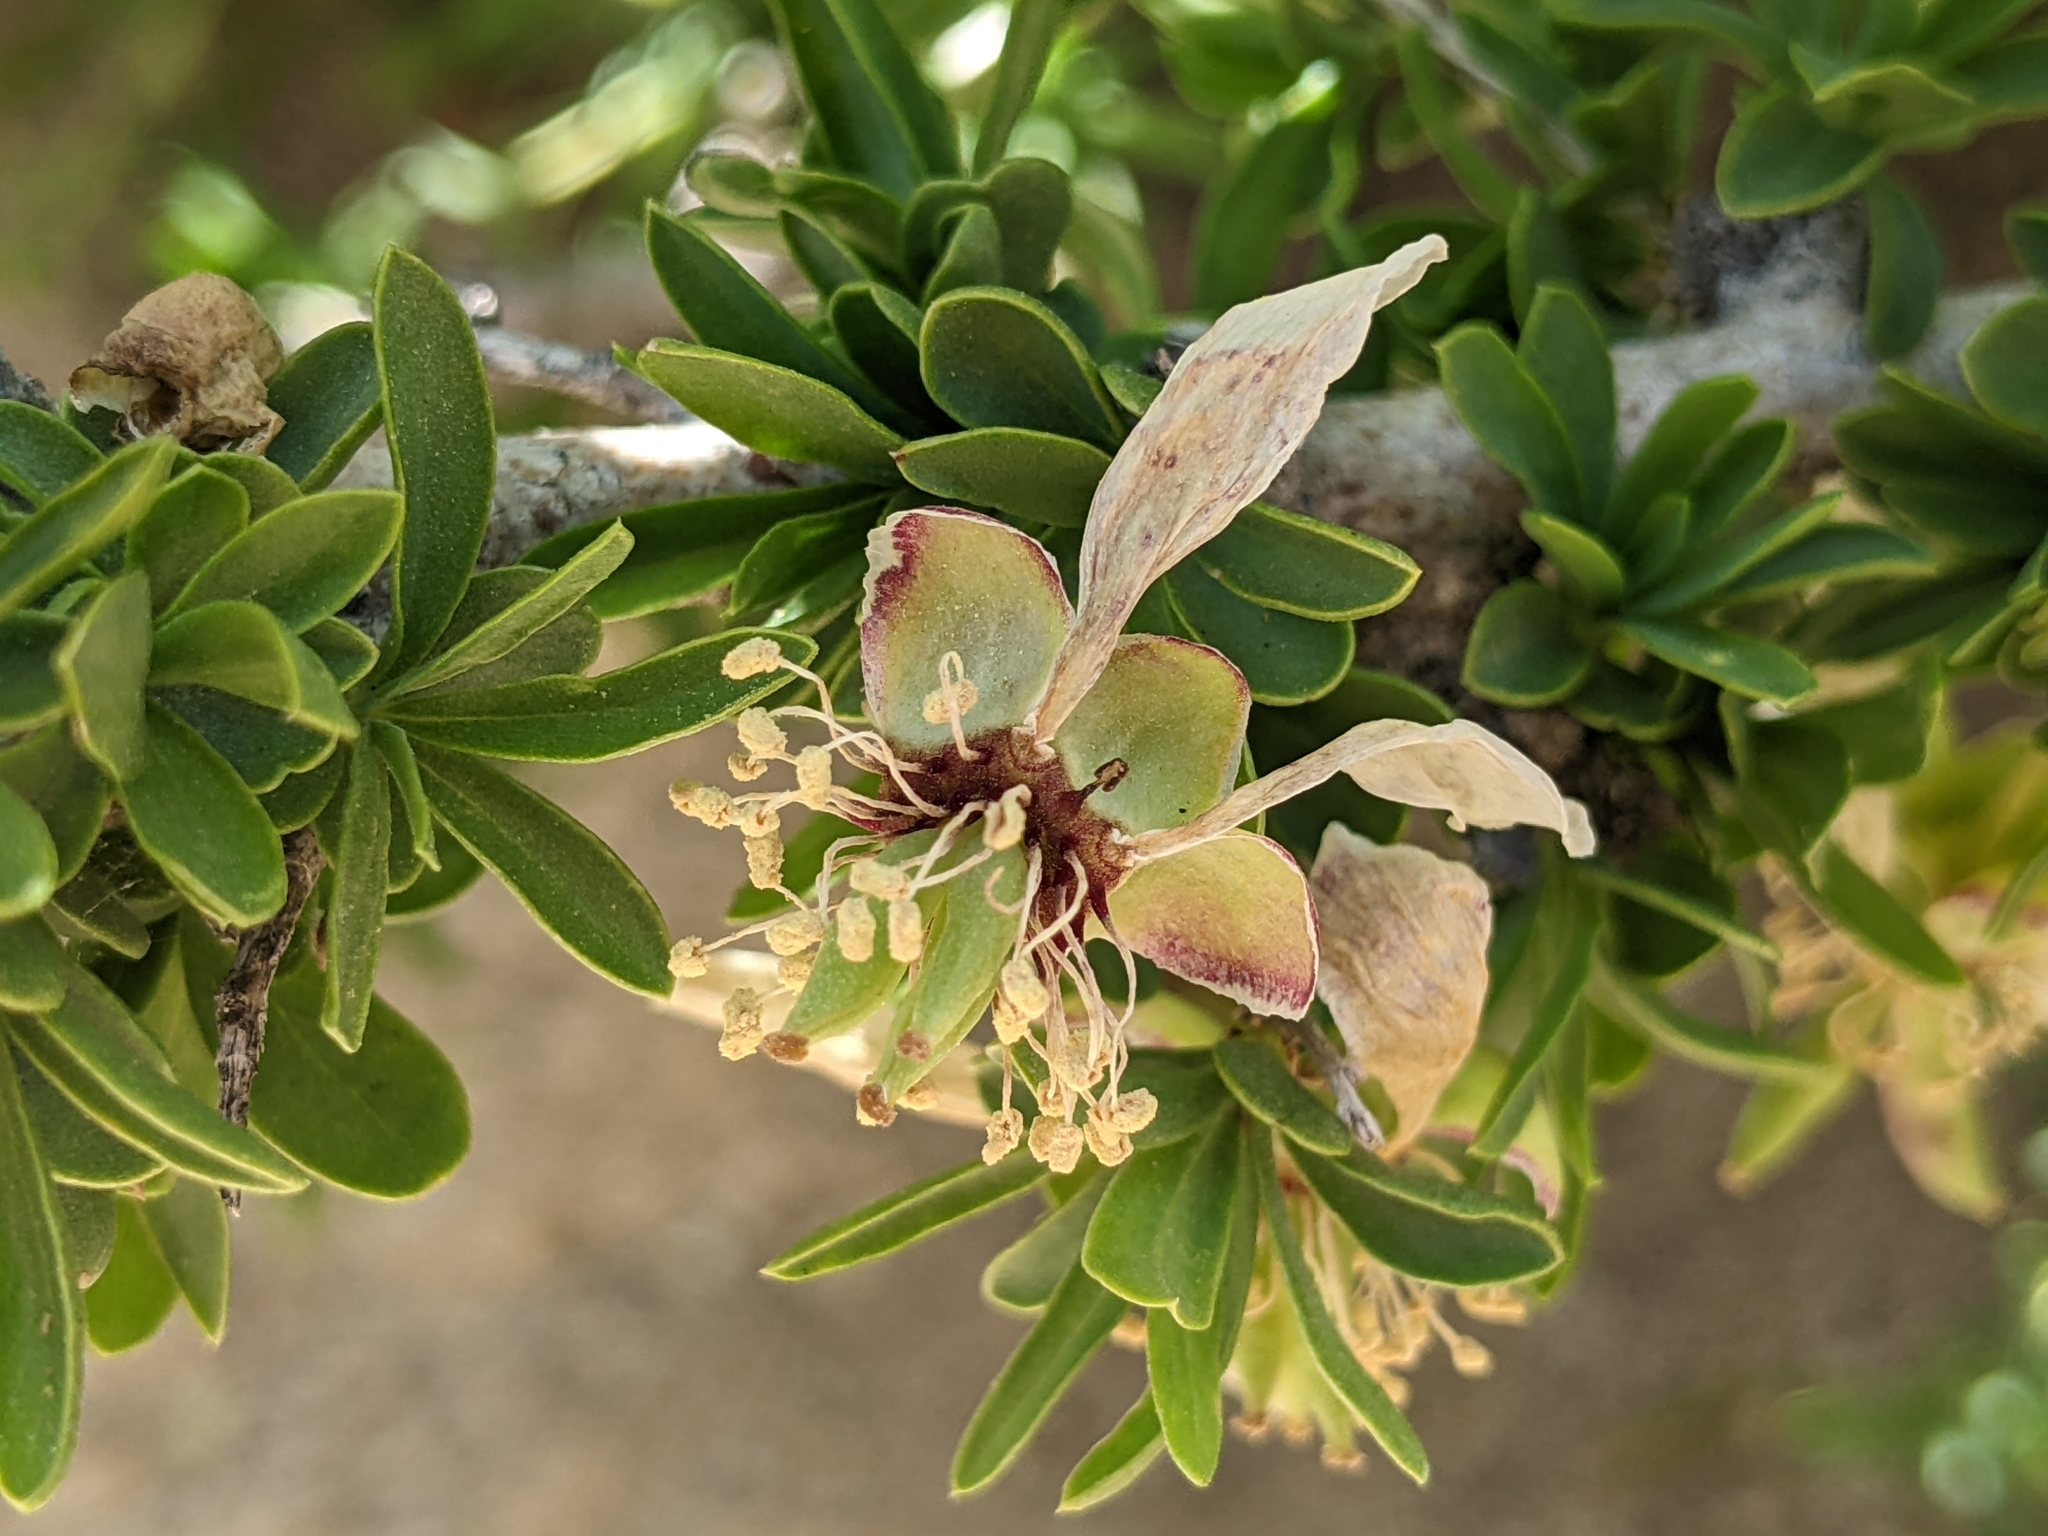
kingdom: Plantae
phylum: Tracheophyta
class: Magnoliopsida
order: Crossosomatales
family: Crossosomataceae
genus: Crossosoma
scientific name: Crossosoma bigelovii
